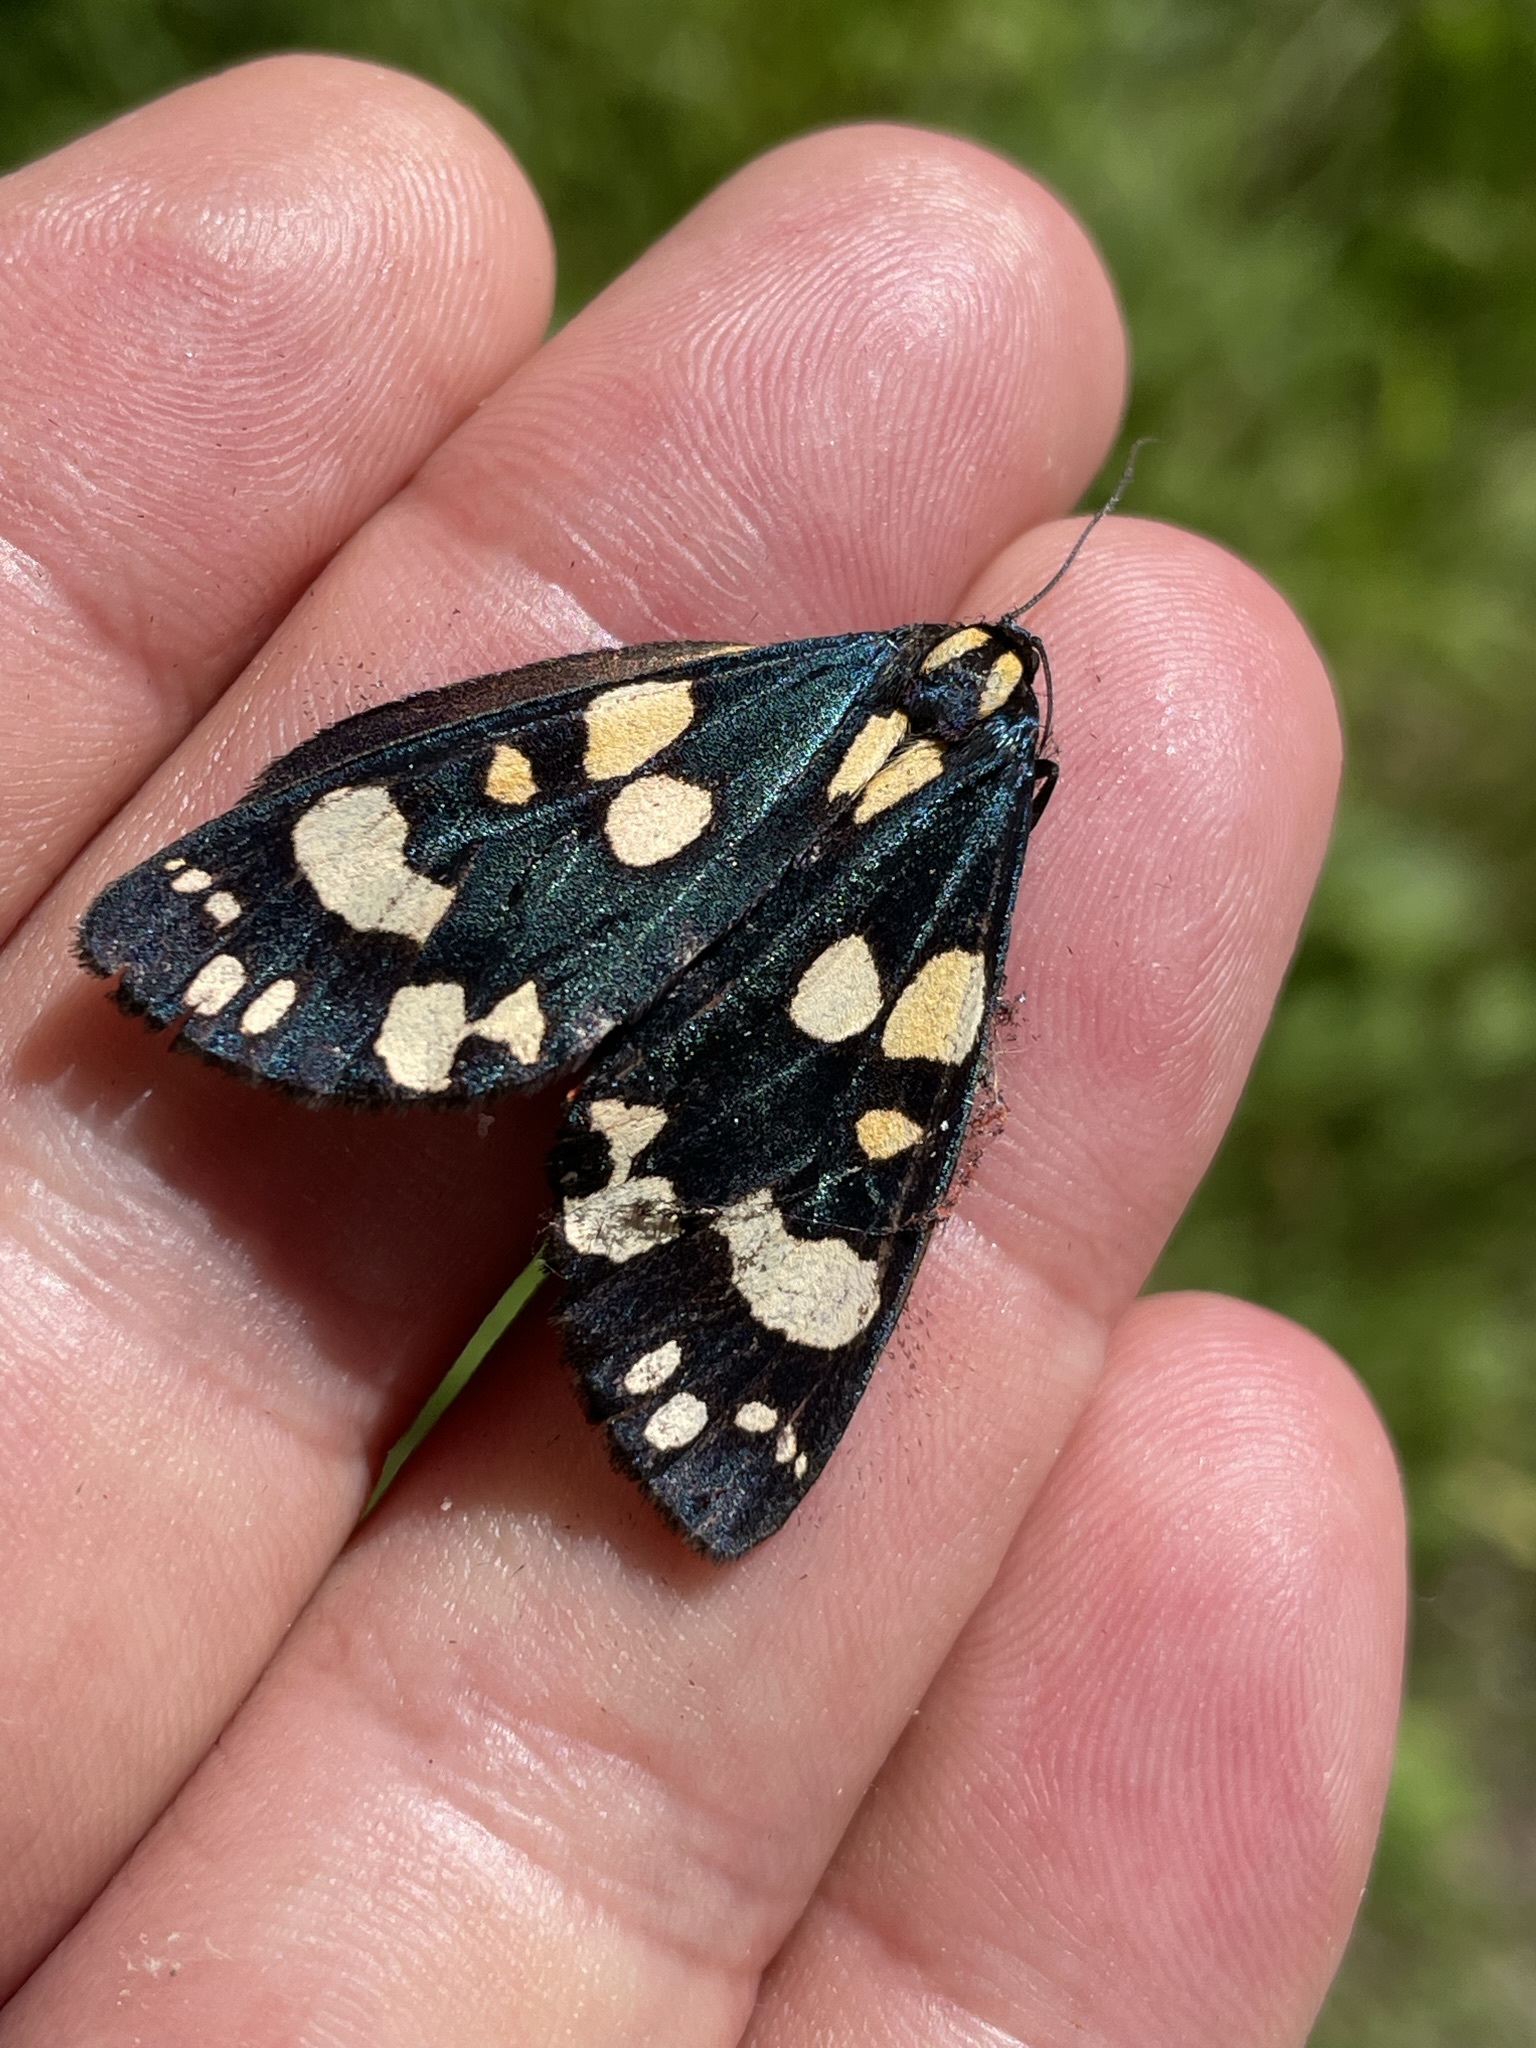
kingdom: Animalia
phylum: Arthropoda
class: Insecta
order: Lepidoptera
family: Erebidae
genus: Callimorpha
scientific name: Callimorpha dominula
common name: Scarlet tiger
